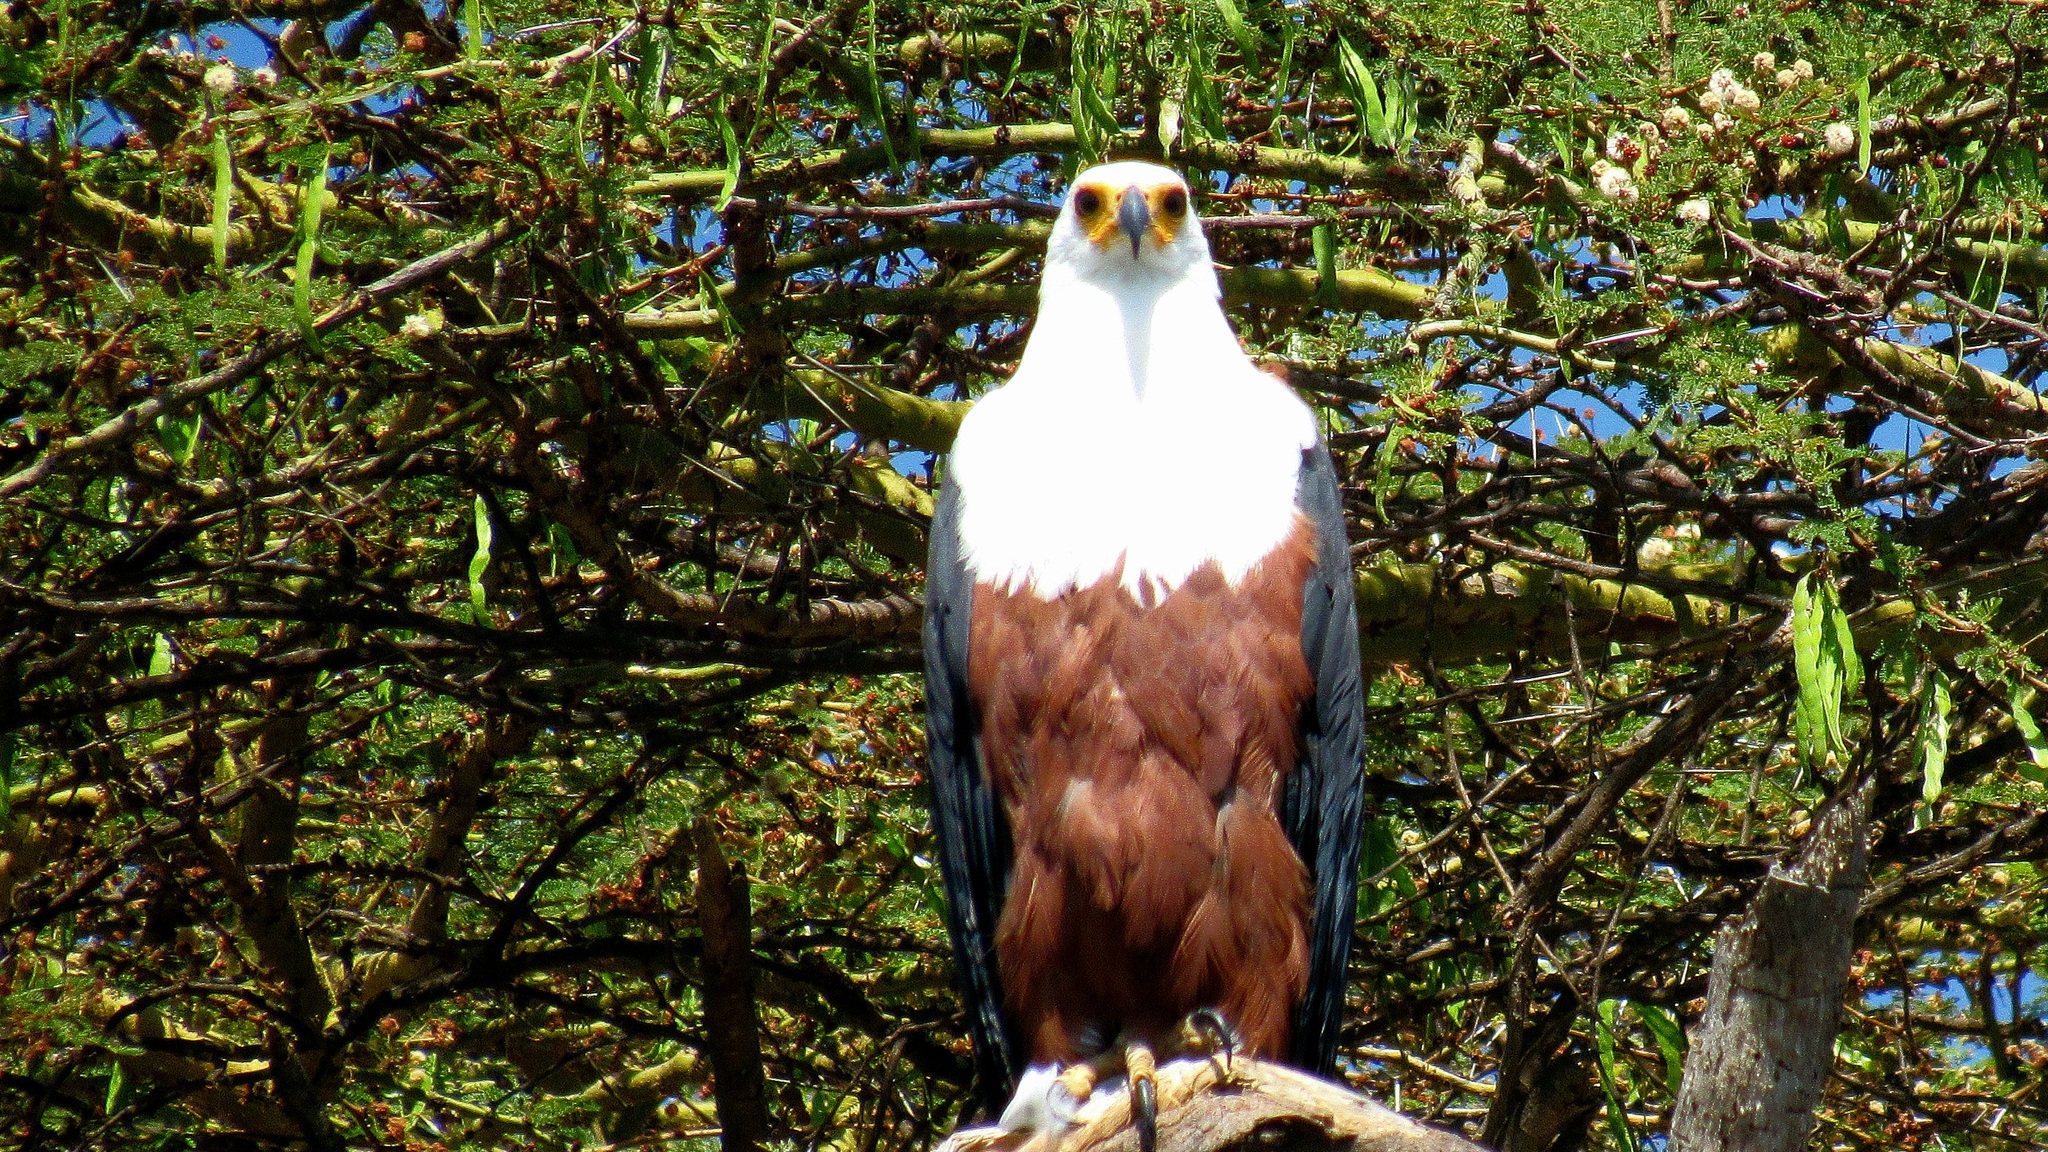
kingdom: Animalia
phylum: Chordata
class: Aves
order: Accipitriformes
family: Accipitridae
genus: Haliaeetus
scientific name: Haliaeetus vocifer
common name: African fish eagle
